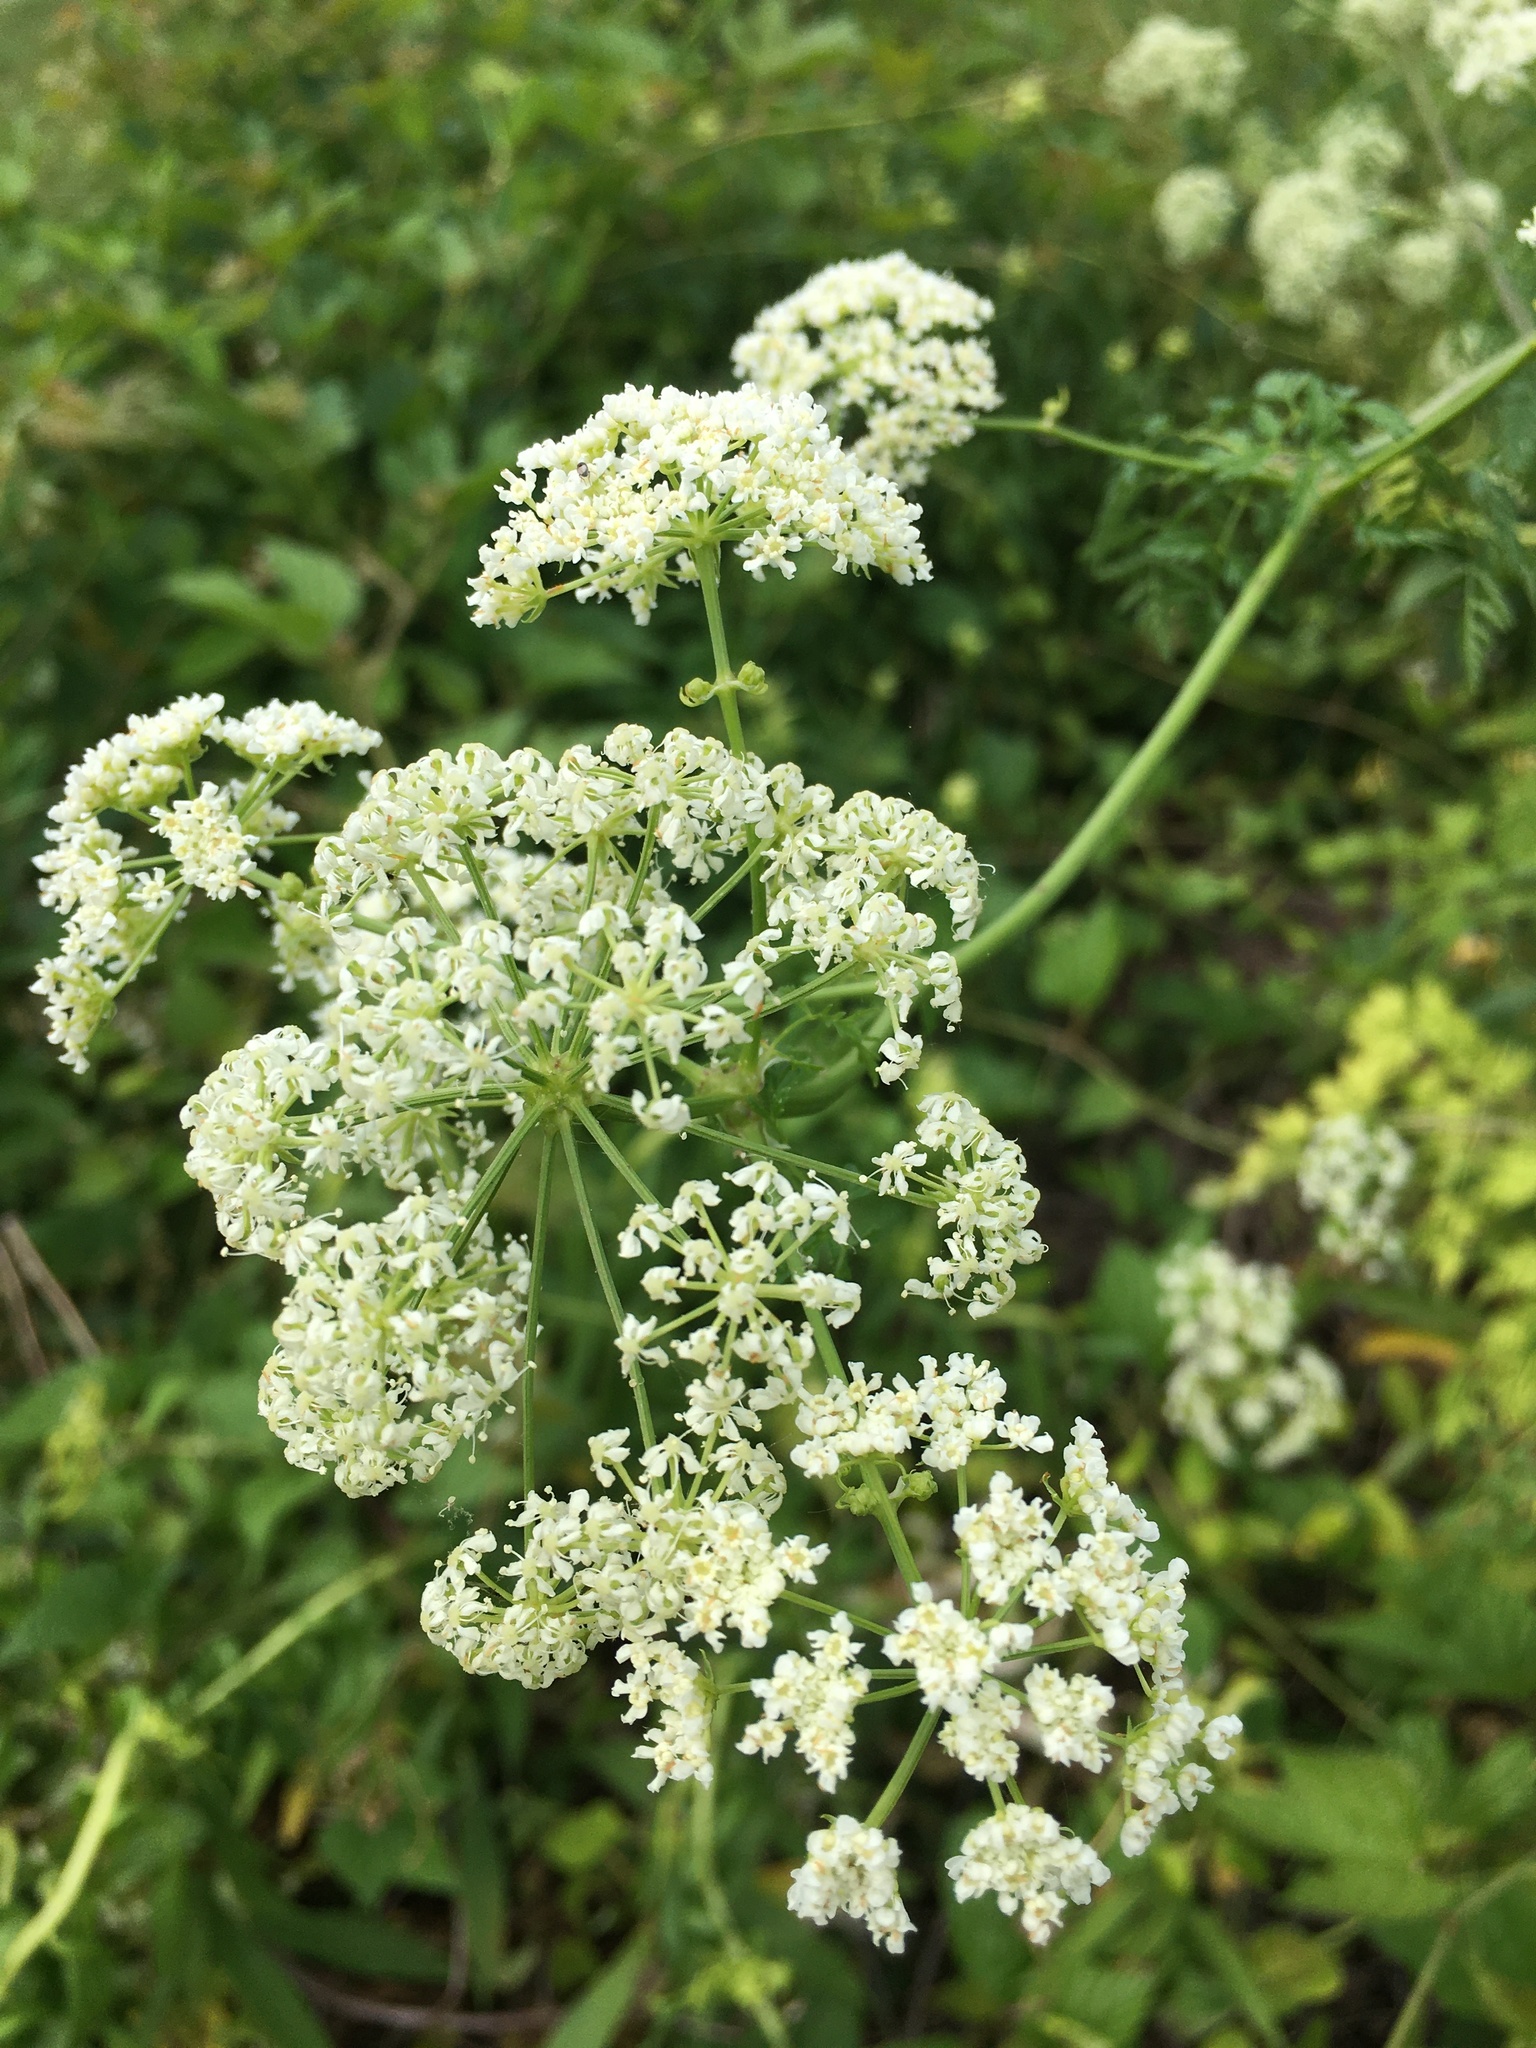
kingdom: Plantae
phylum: Tracheophyta
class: Magnoliopsida
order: Apiales
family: Apiaceae
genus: Conium
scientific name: Conium maculatum
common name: Hemlock
